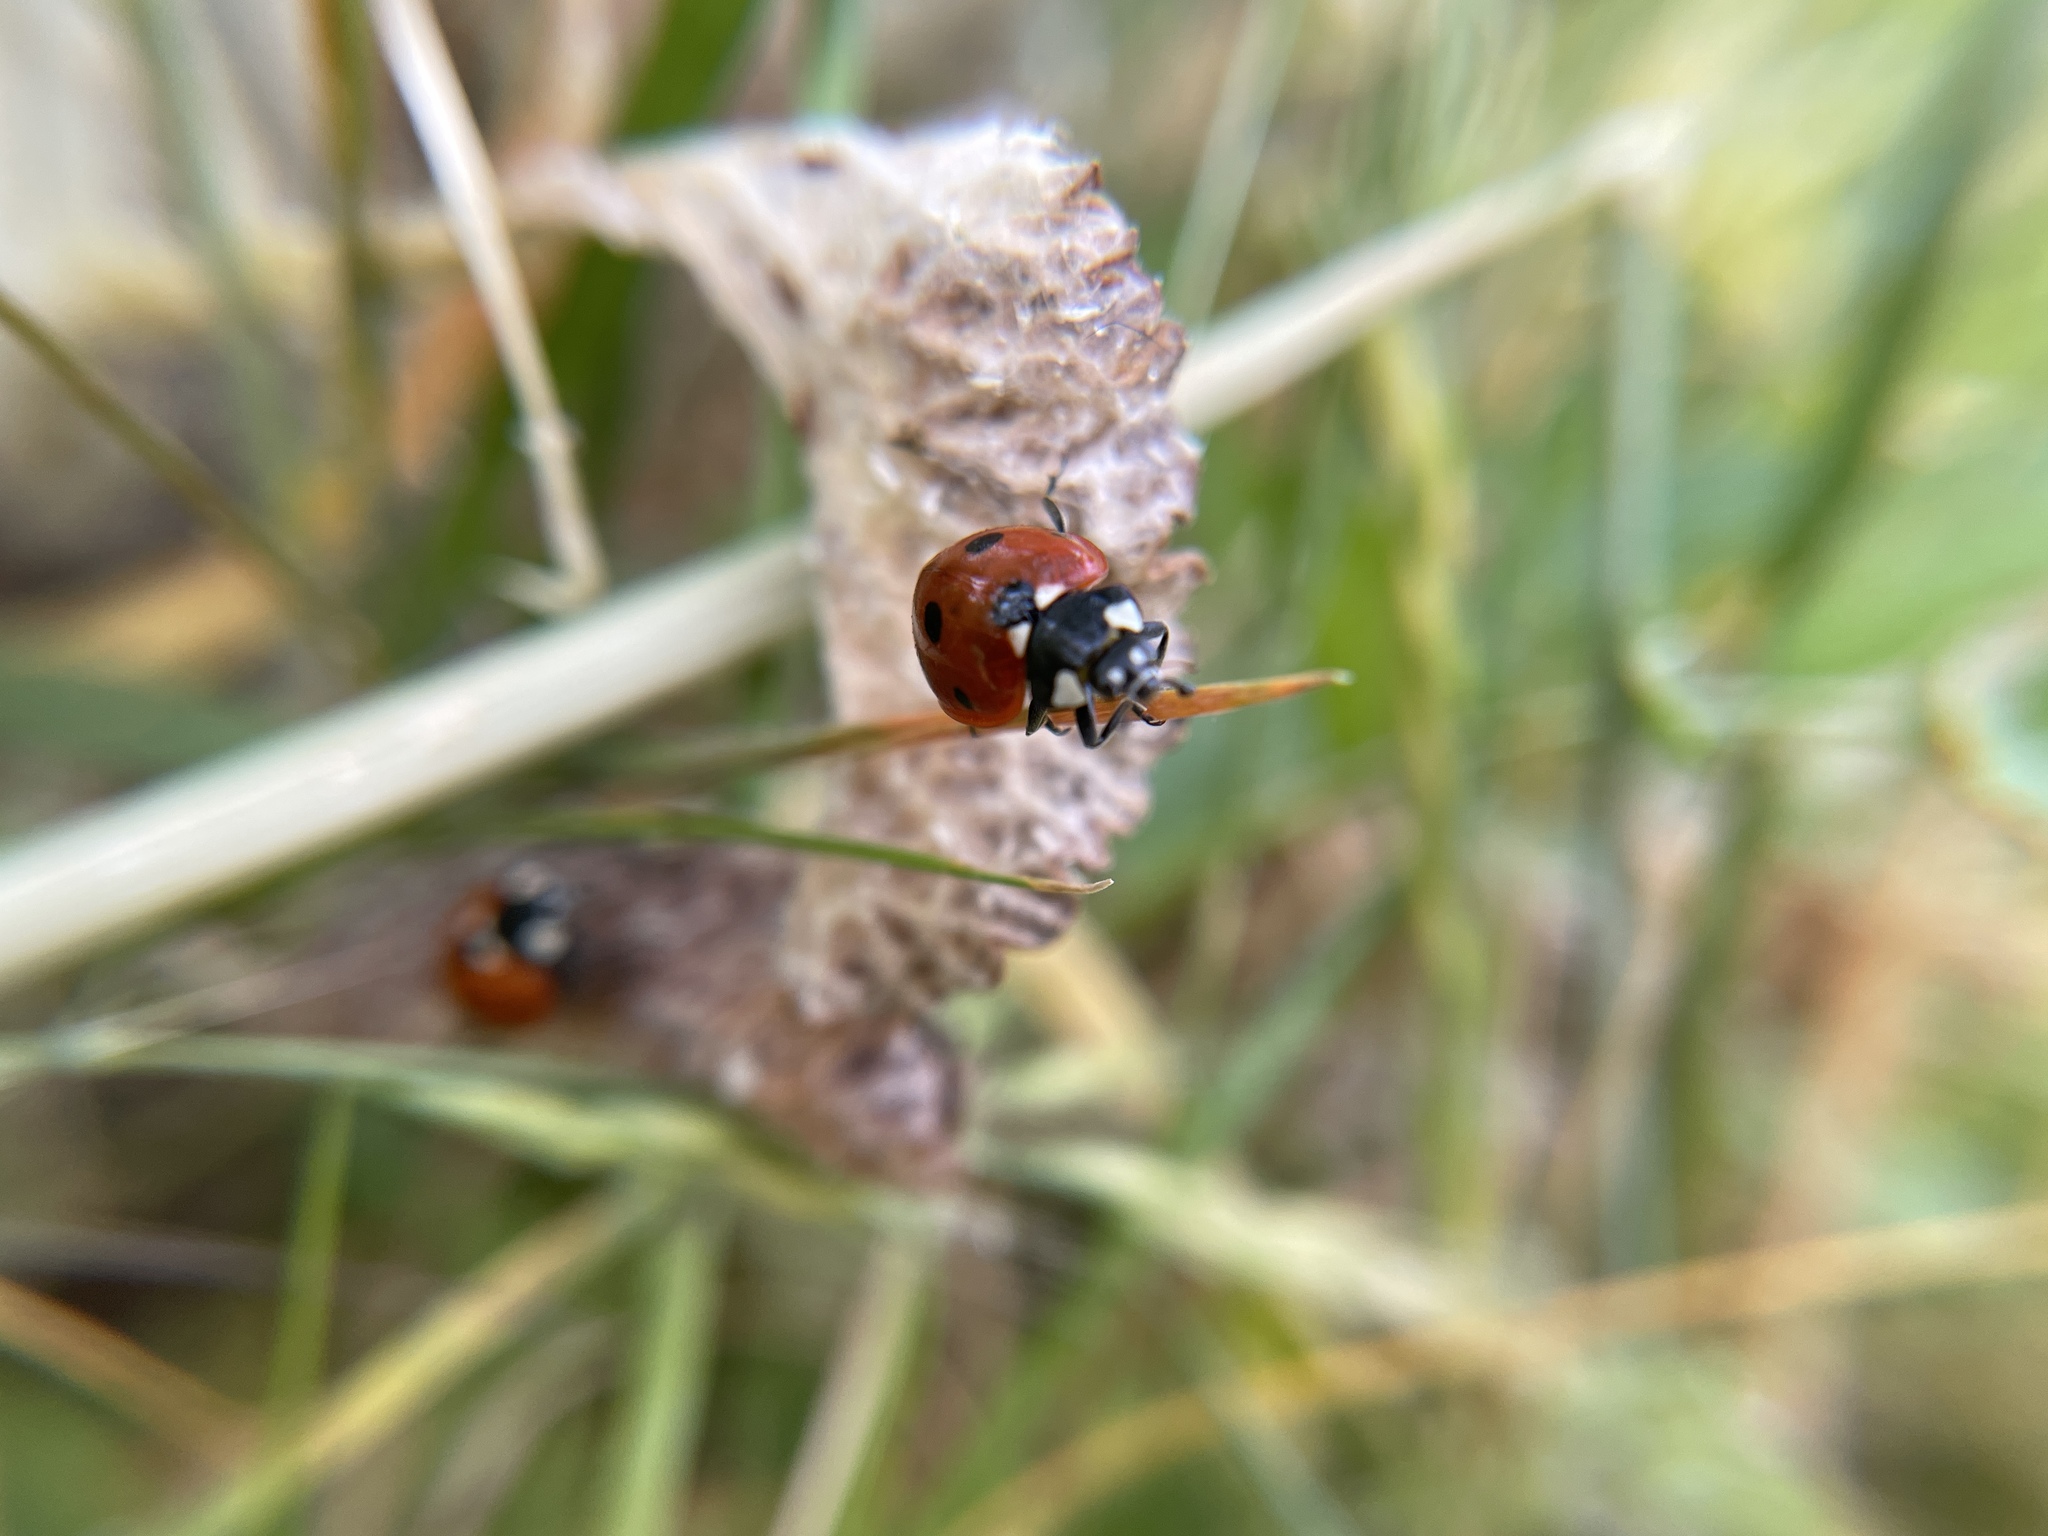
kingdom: Animalia
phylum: Arthropoda
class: Insecta
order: Coleoptera
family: Coccinellidae
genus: Coccinella
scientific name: Coccinella septempunctata
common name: Sevenspotted lady beetle
